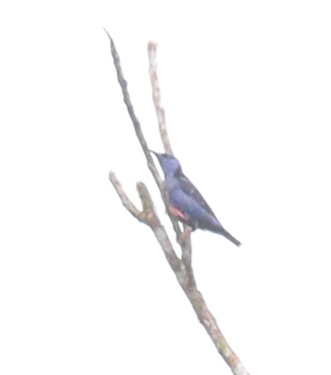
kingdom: Animalia
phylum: Chordata
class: Aves
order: Passeriformes
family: Thraupidae
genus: Cyanerpes
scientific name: Cyanerpes cyaneus
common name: Red-legged honeycreeper
